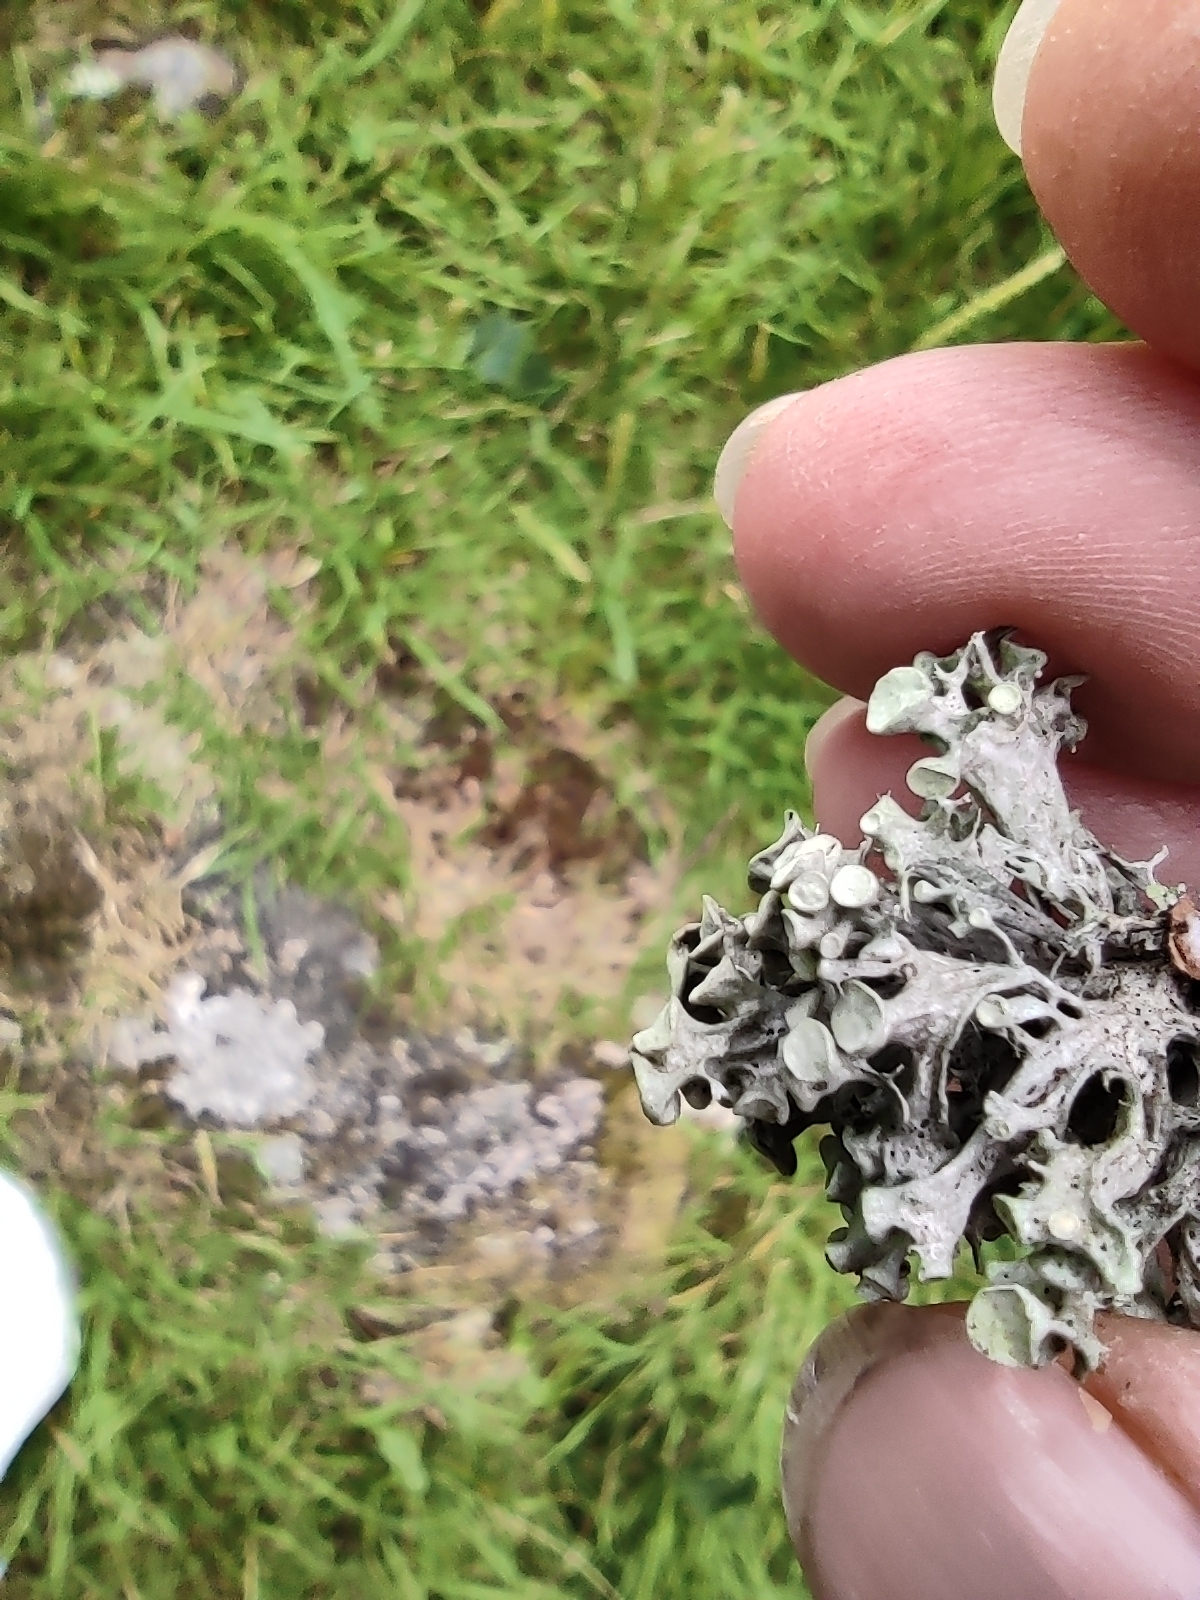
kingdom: Fungi
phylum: Ascomycota
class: Lecanoromycetes
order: Lecanorales
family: Ramalinaceae
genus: Ramalina
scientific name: Ramalina fastigiata
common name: Dotted ribbon lichen
